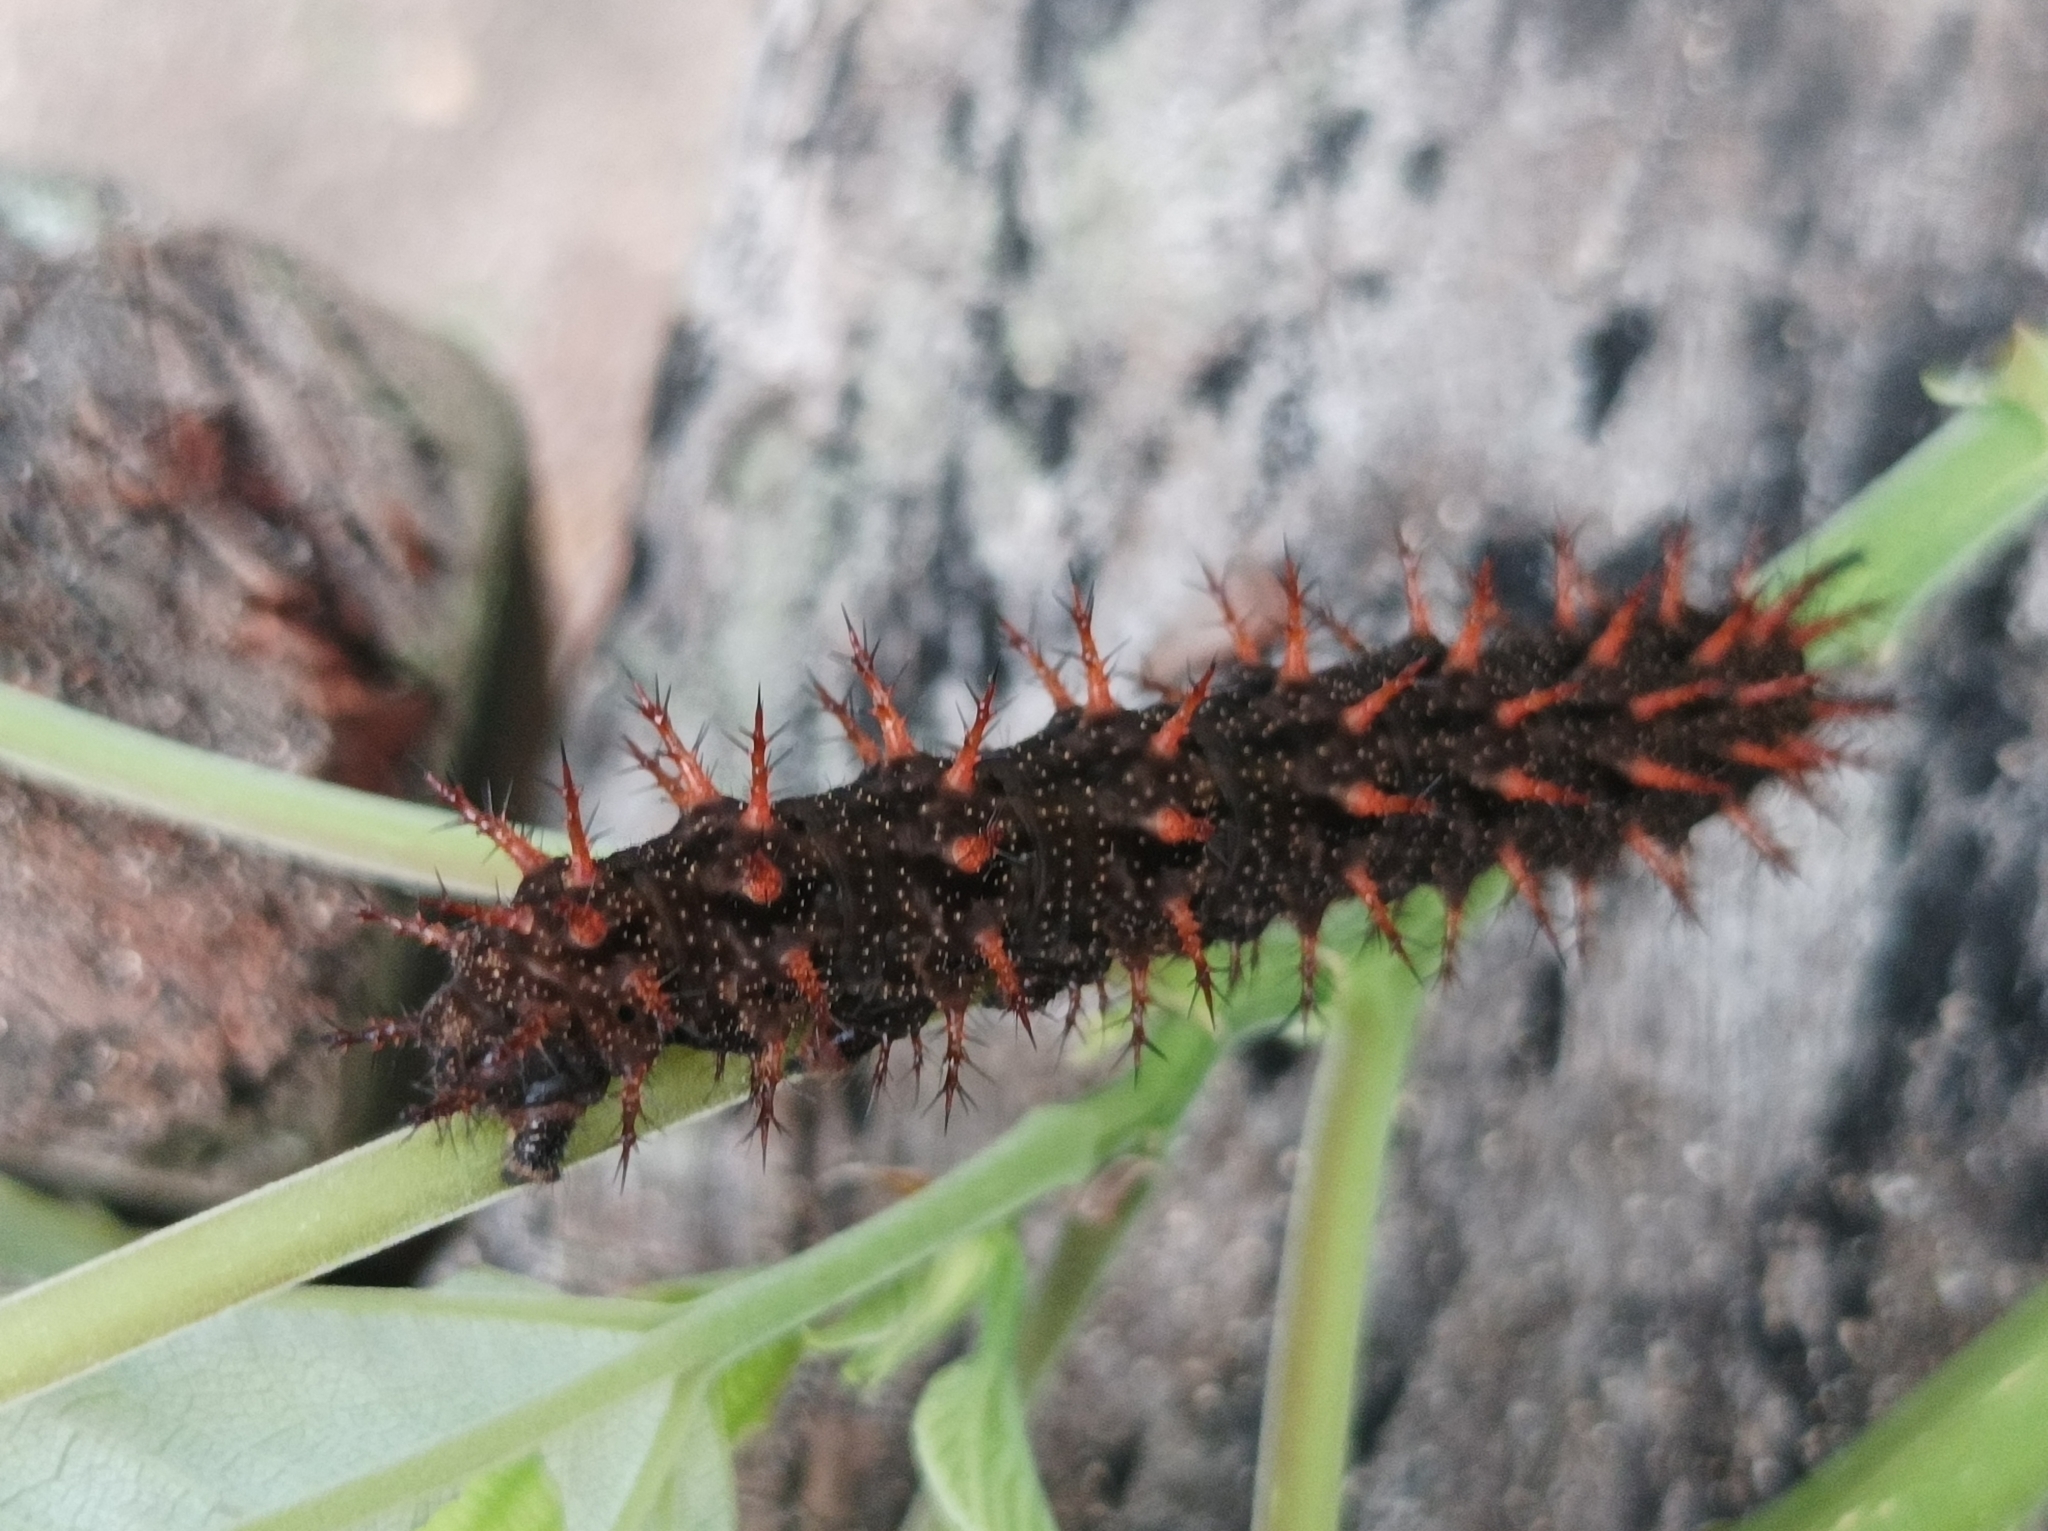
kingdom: Animalia
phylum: Arthropoda
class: Insecta
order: Lepidoptera
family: Nymphalidae
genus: Hypolimnas
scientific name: Hypolimnas octocula
